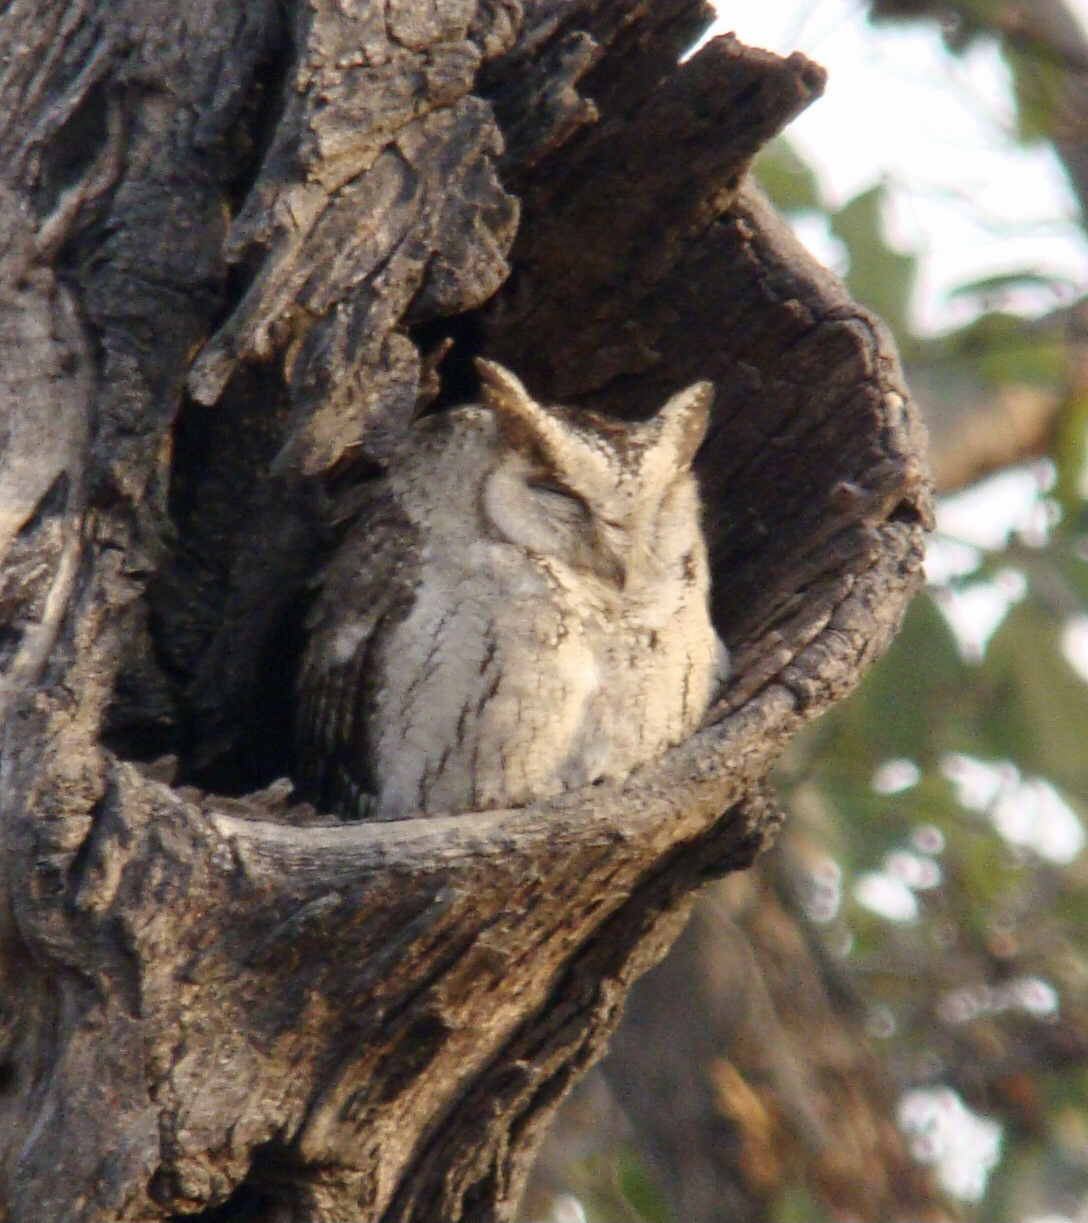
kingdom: Animalia
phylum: Chordata
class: Aves
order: Strigiformes
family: Strigidae
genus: Otus
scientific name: Otus bakkamoena
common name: Indian scops owl
